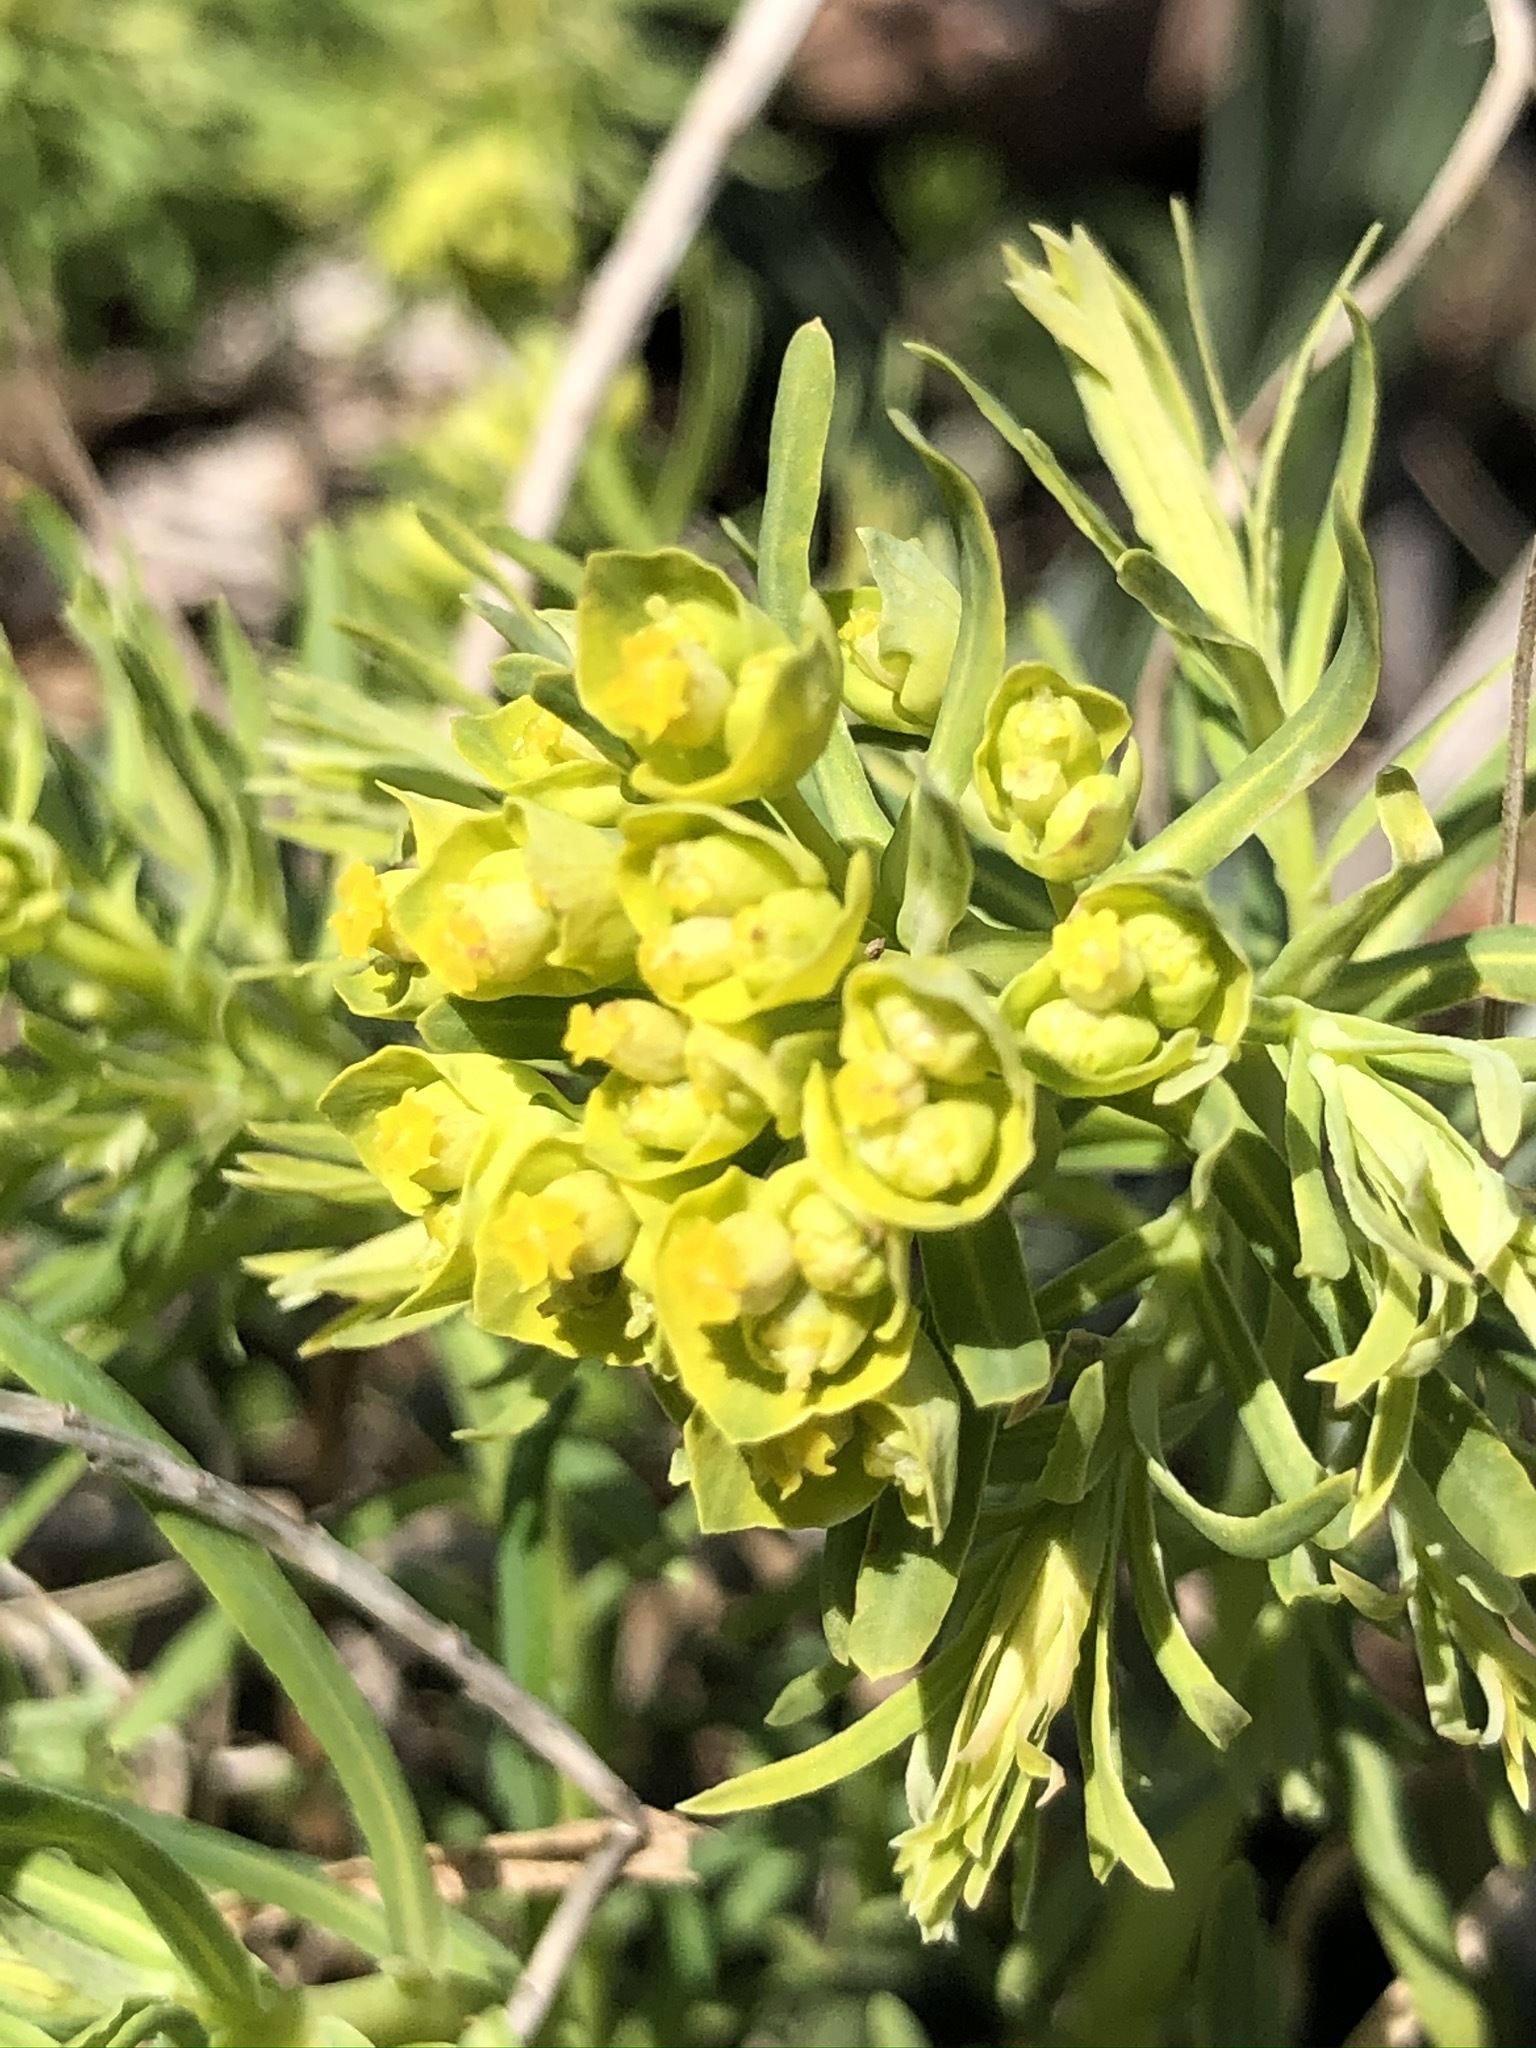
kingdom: Plantae
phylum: Tracheophyta
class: Magnoliopsida
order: Malpighiales
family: Euphorbiaceae
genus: Euphorbia
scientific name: Euphorbia cyparissias
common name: Cypress spurge
